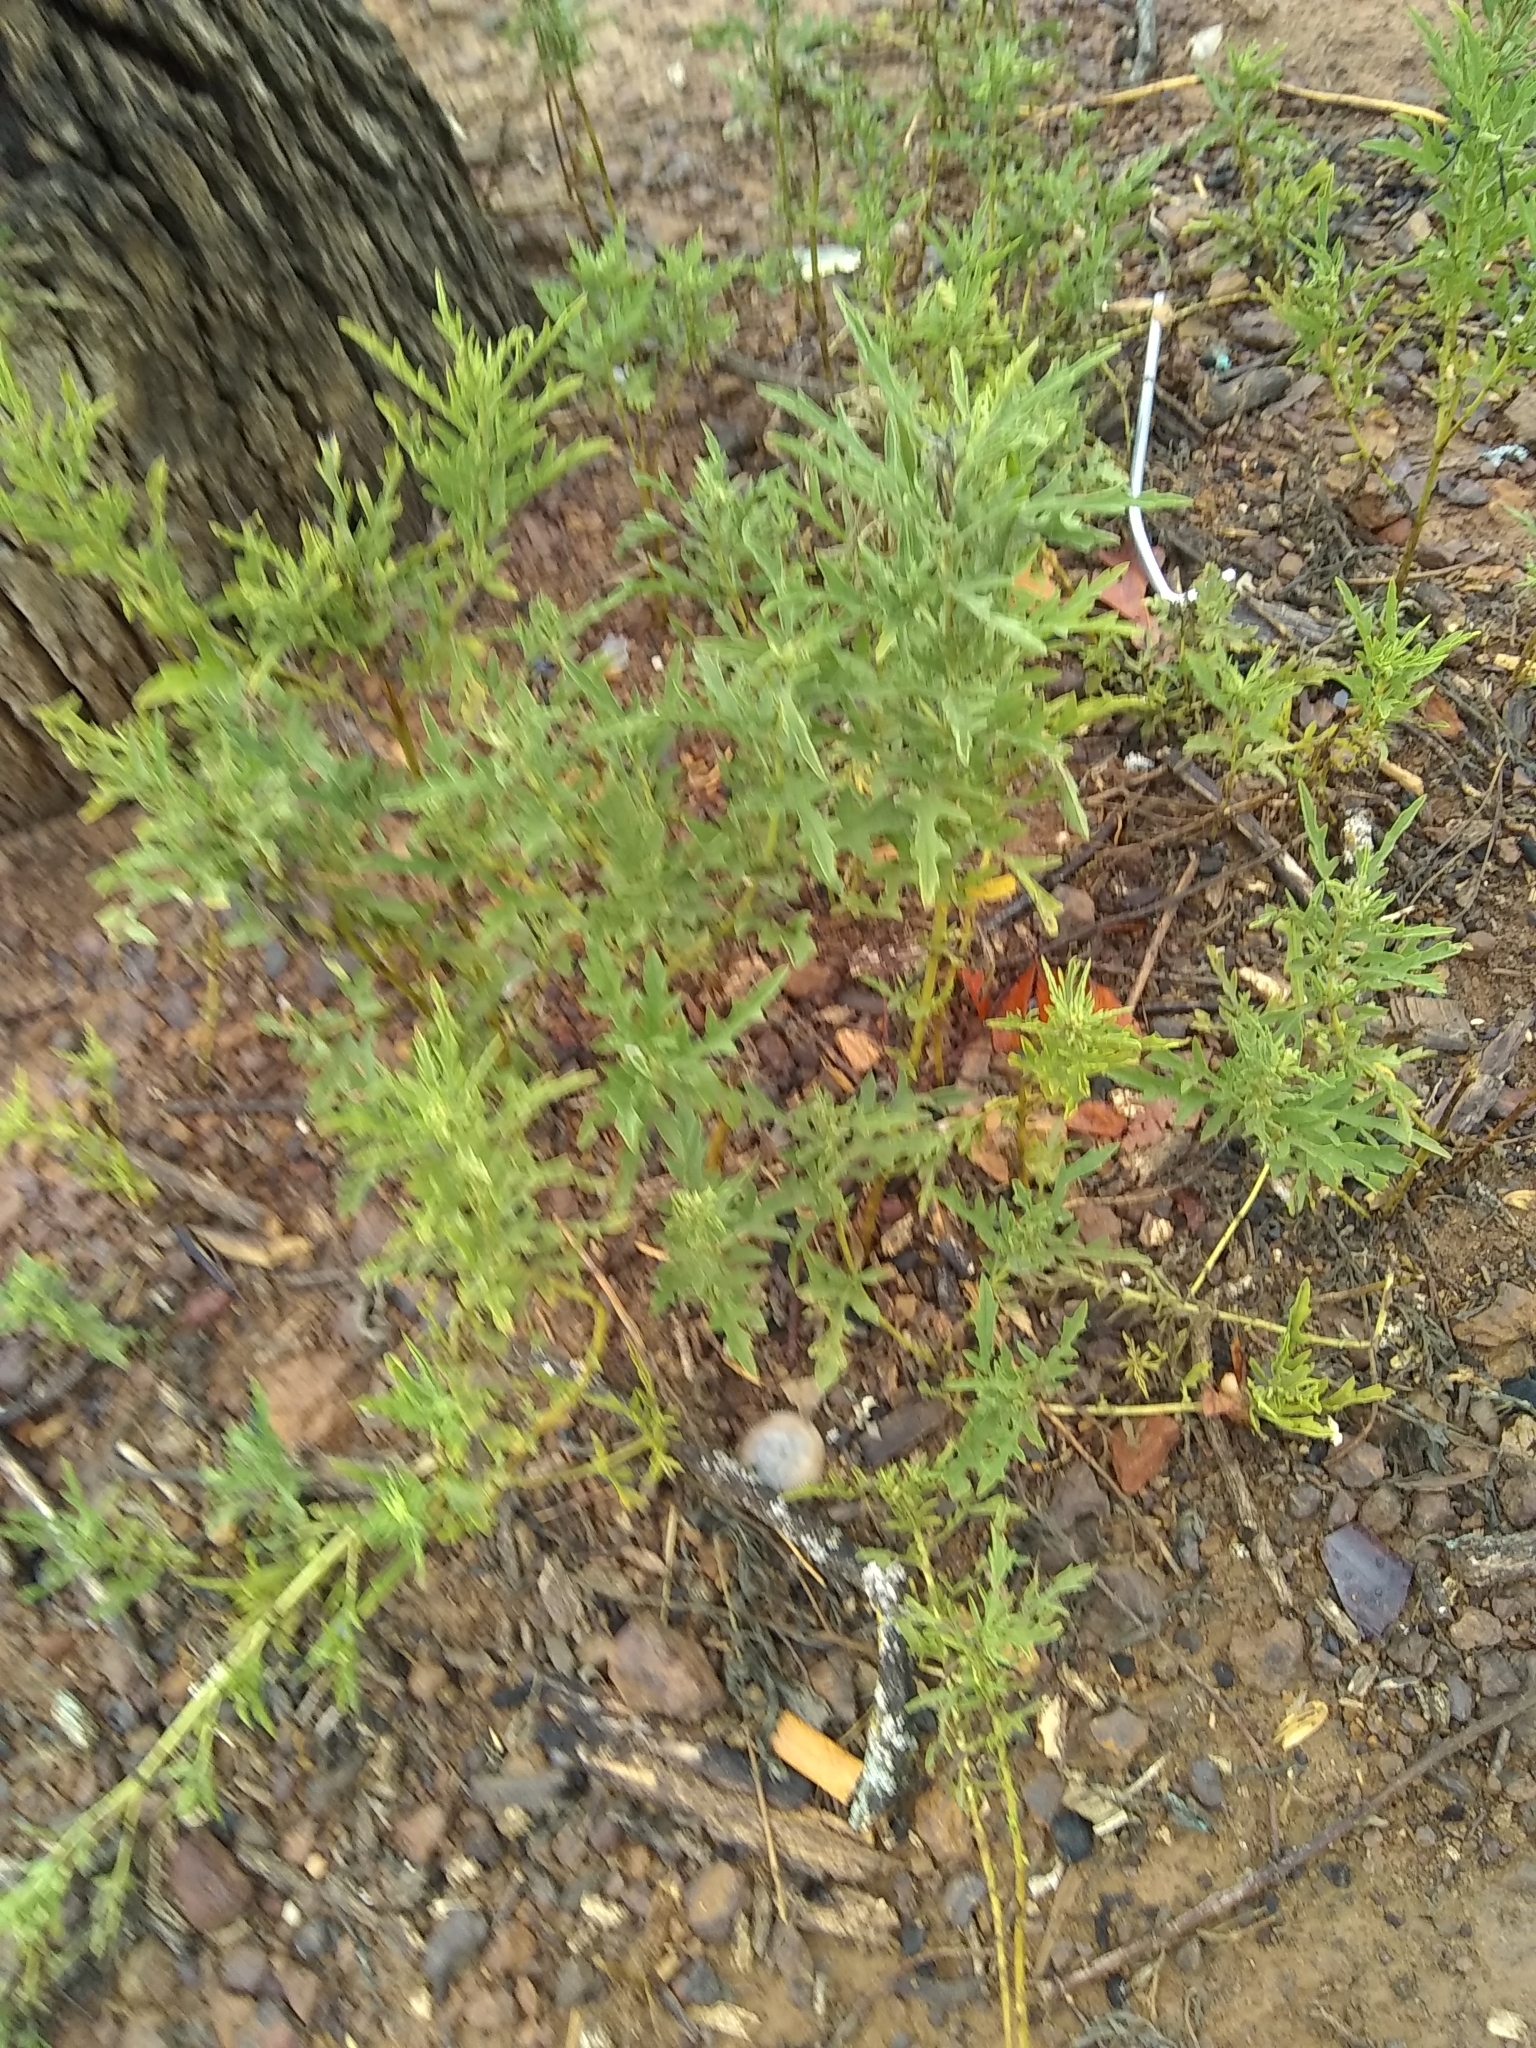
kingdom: Plantae
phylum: Tracheophyta
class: Magnoliopsida
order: Asterales
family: Asteraceae
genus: Ambrosia
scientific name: Ambrosia psilostachya
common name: Perennial ragweed
